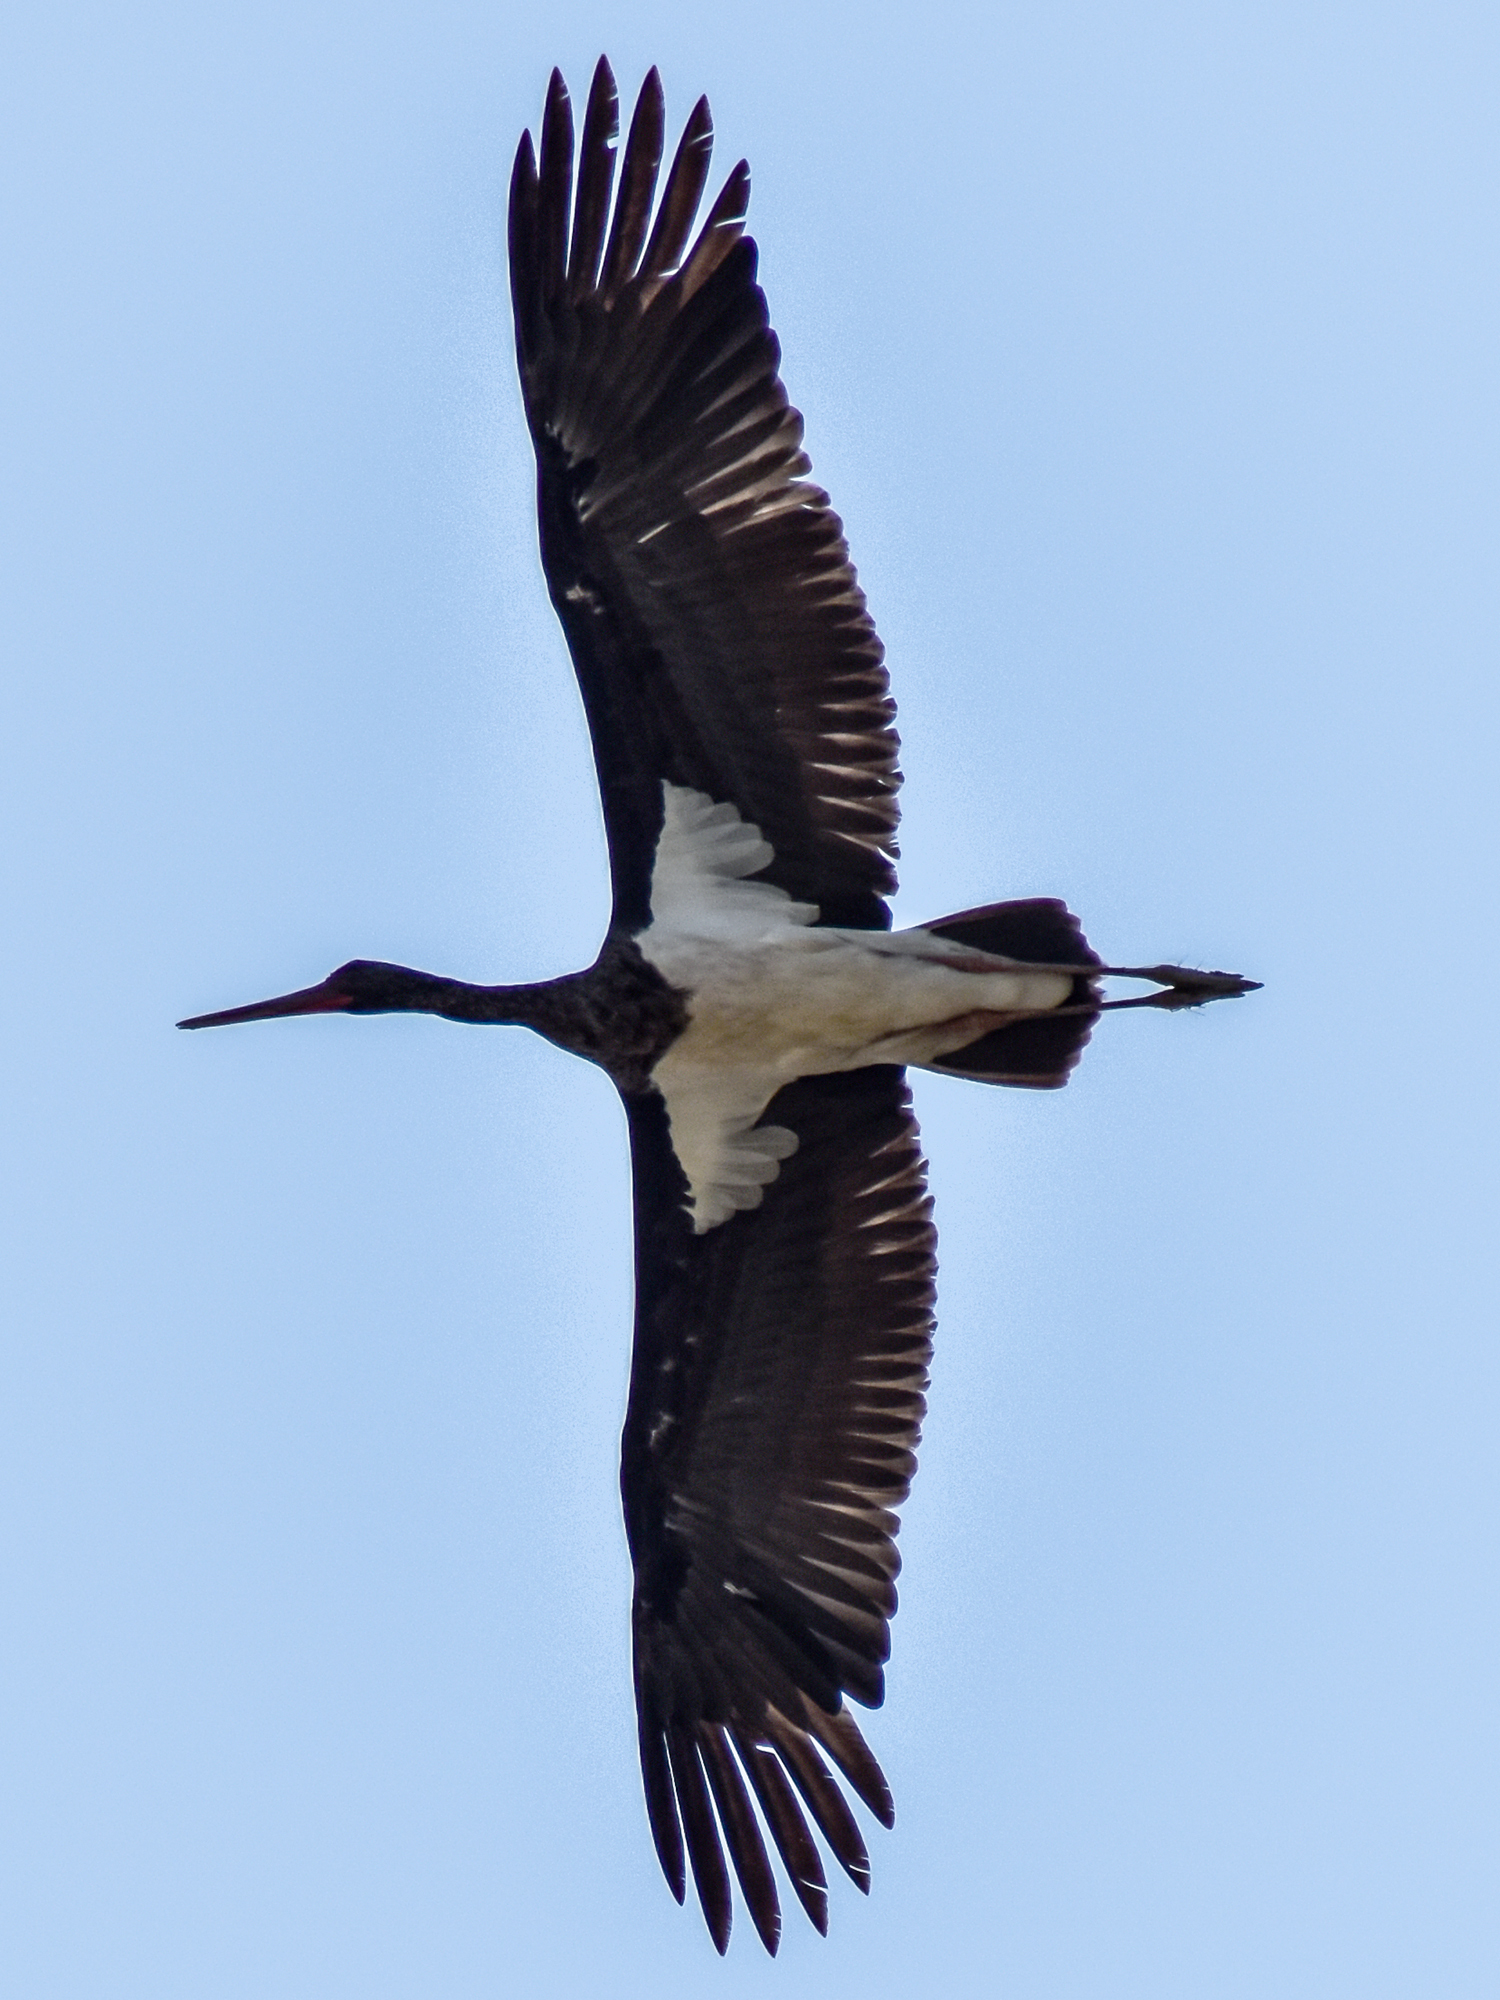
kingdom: Animalia
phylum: Chordata
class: Aves
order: Ciconiiformes
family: Ciconiidae
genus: Ciconia
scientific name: Ciconia nigra
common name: Black stork
